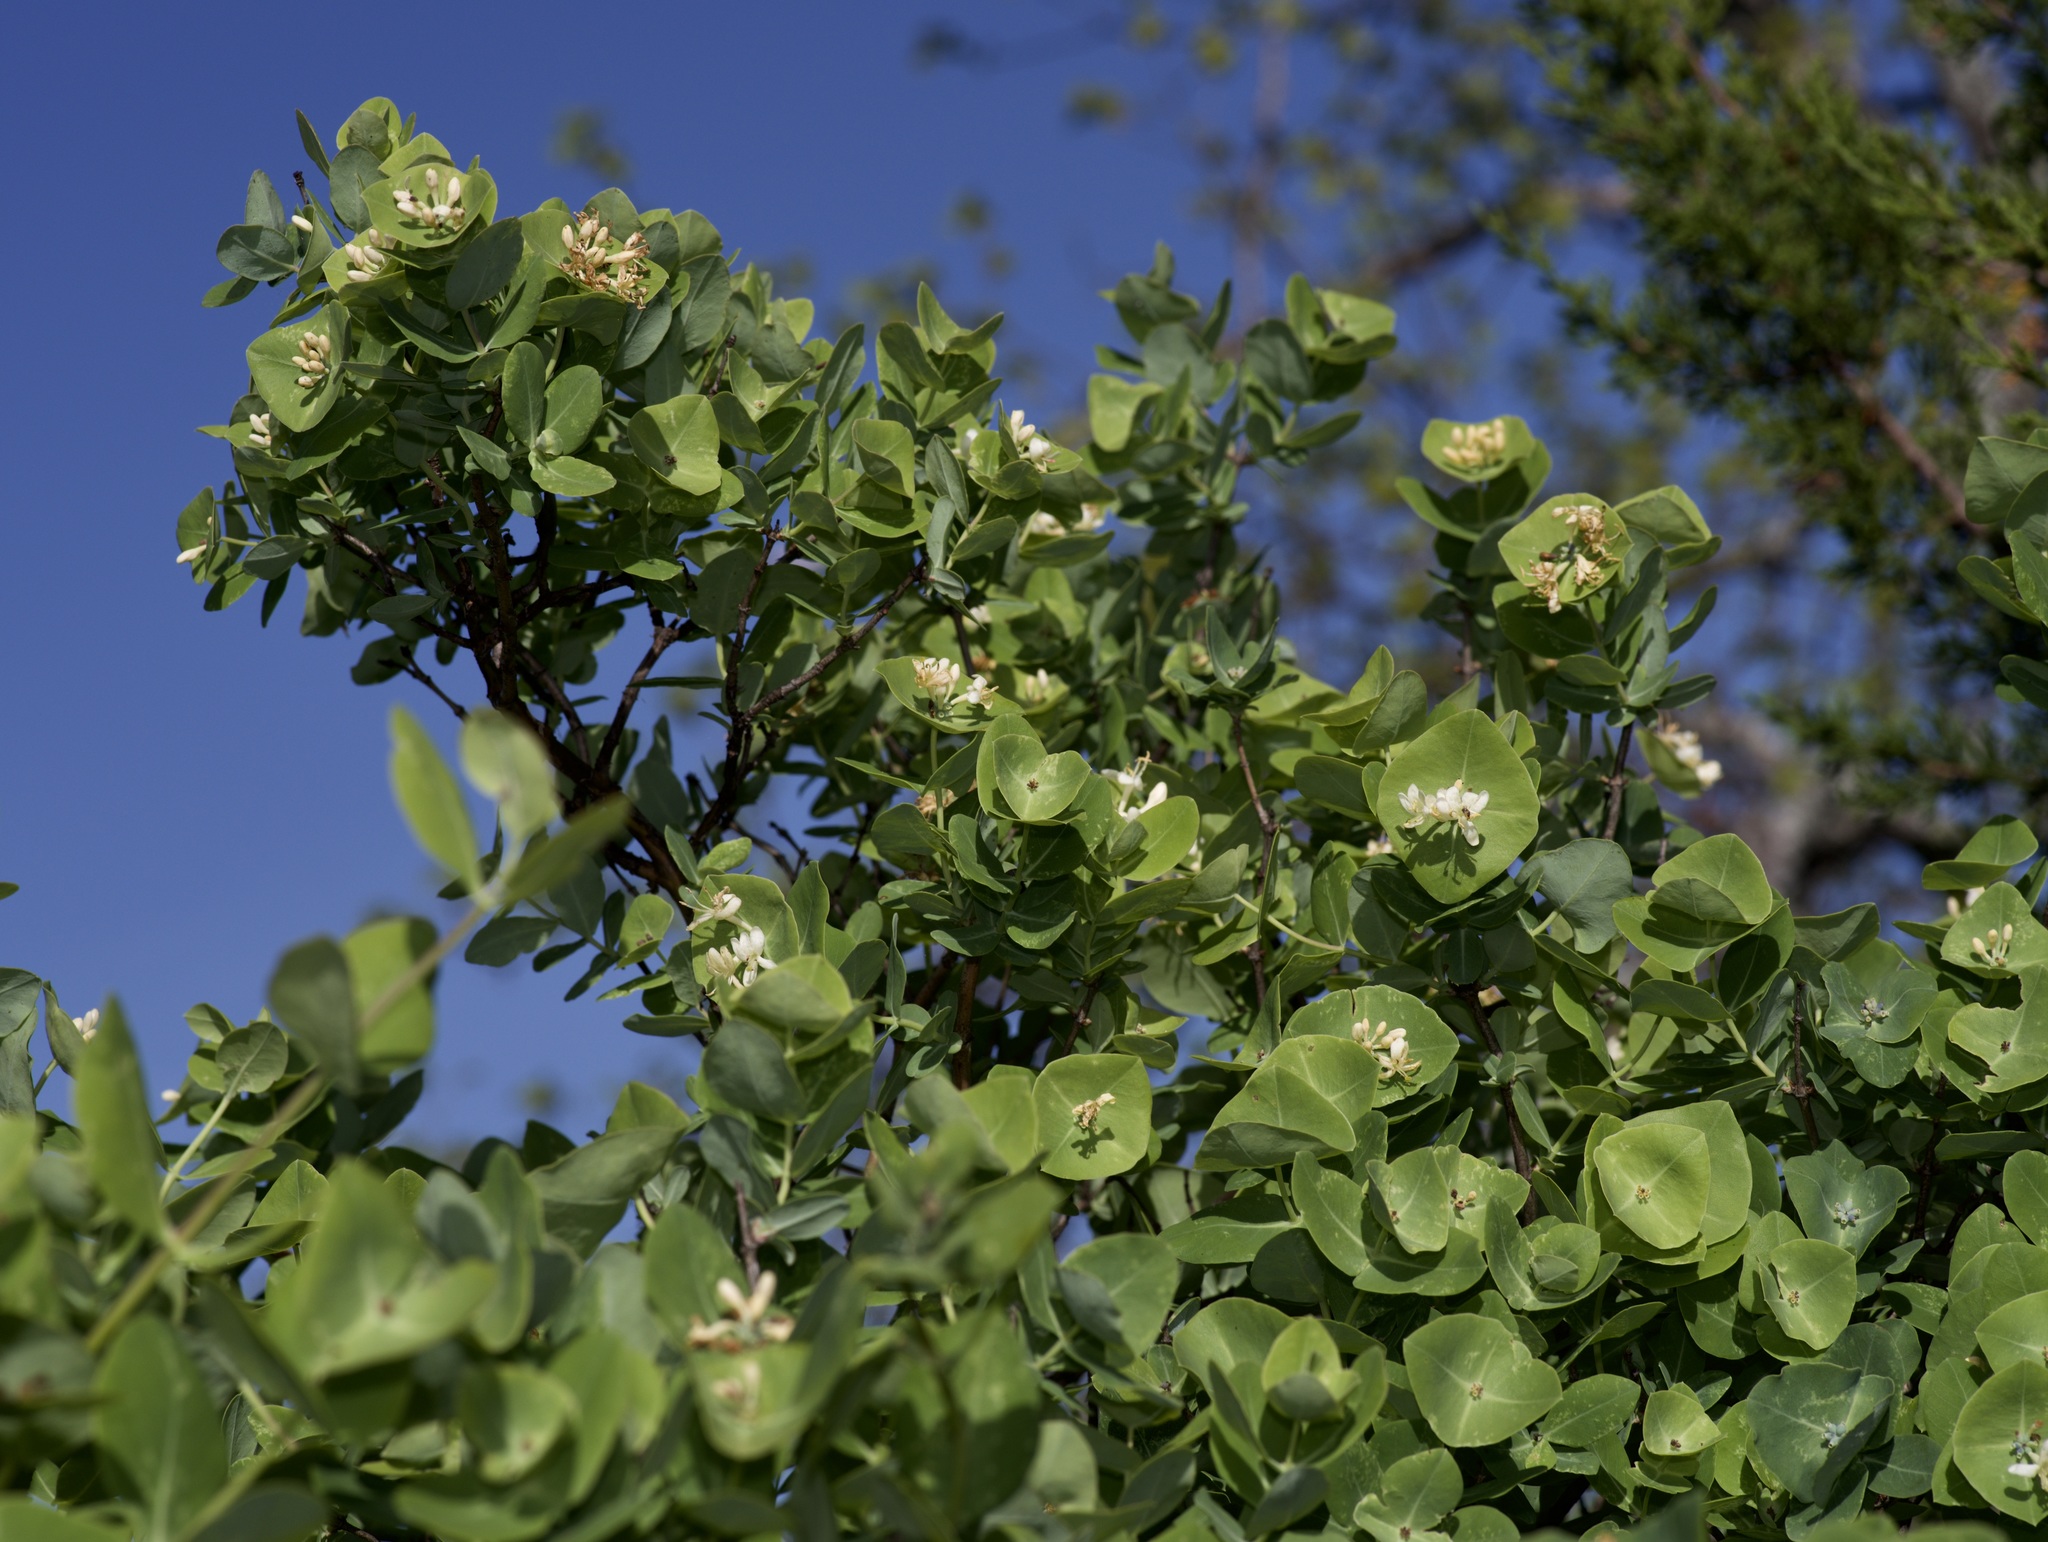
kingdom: Plantae
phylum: Tracheophyta
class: Magnoliopsida
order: Dipsacales
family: Caprifoliaceae
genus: Lonicera
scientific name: Lonicera albiflora
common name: White honeysuckle
